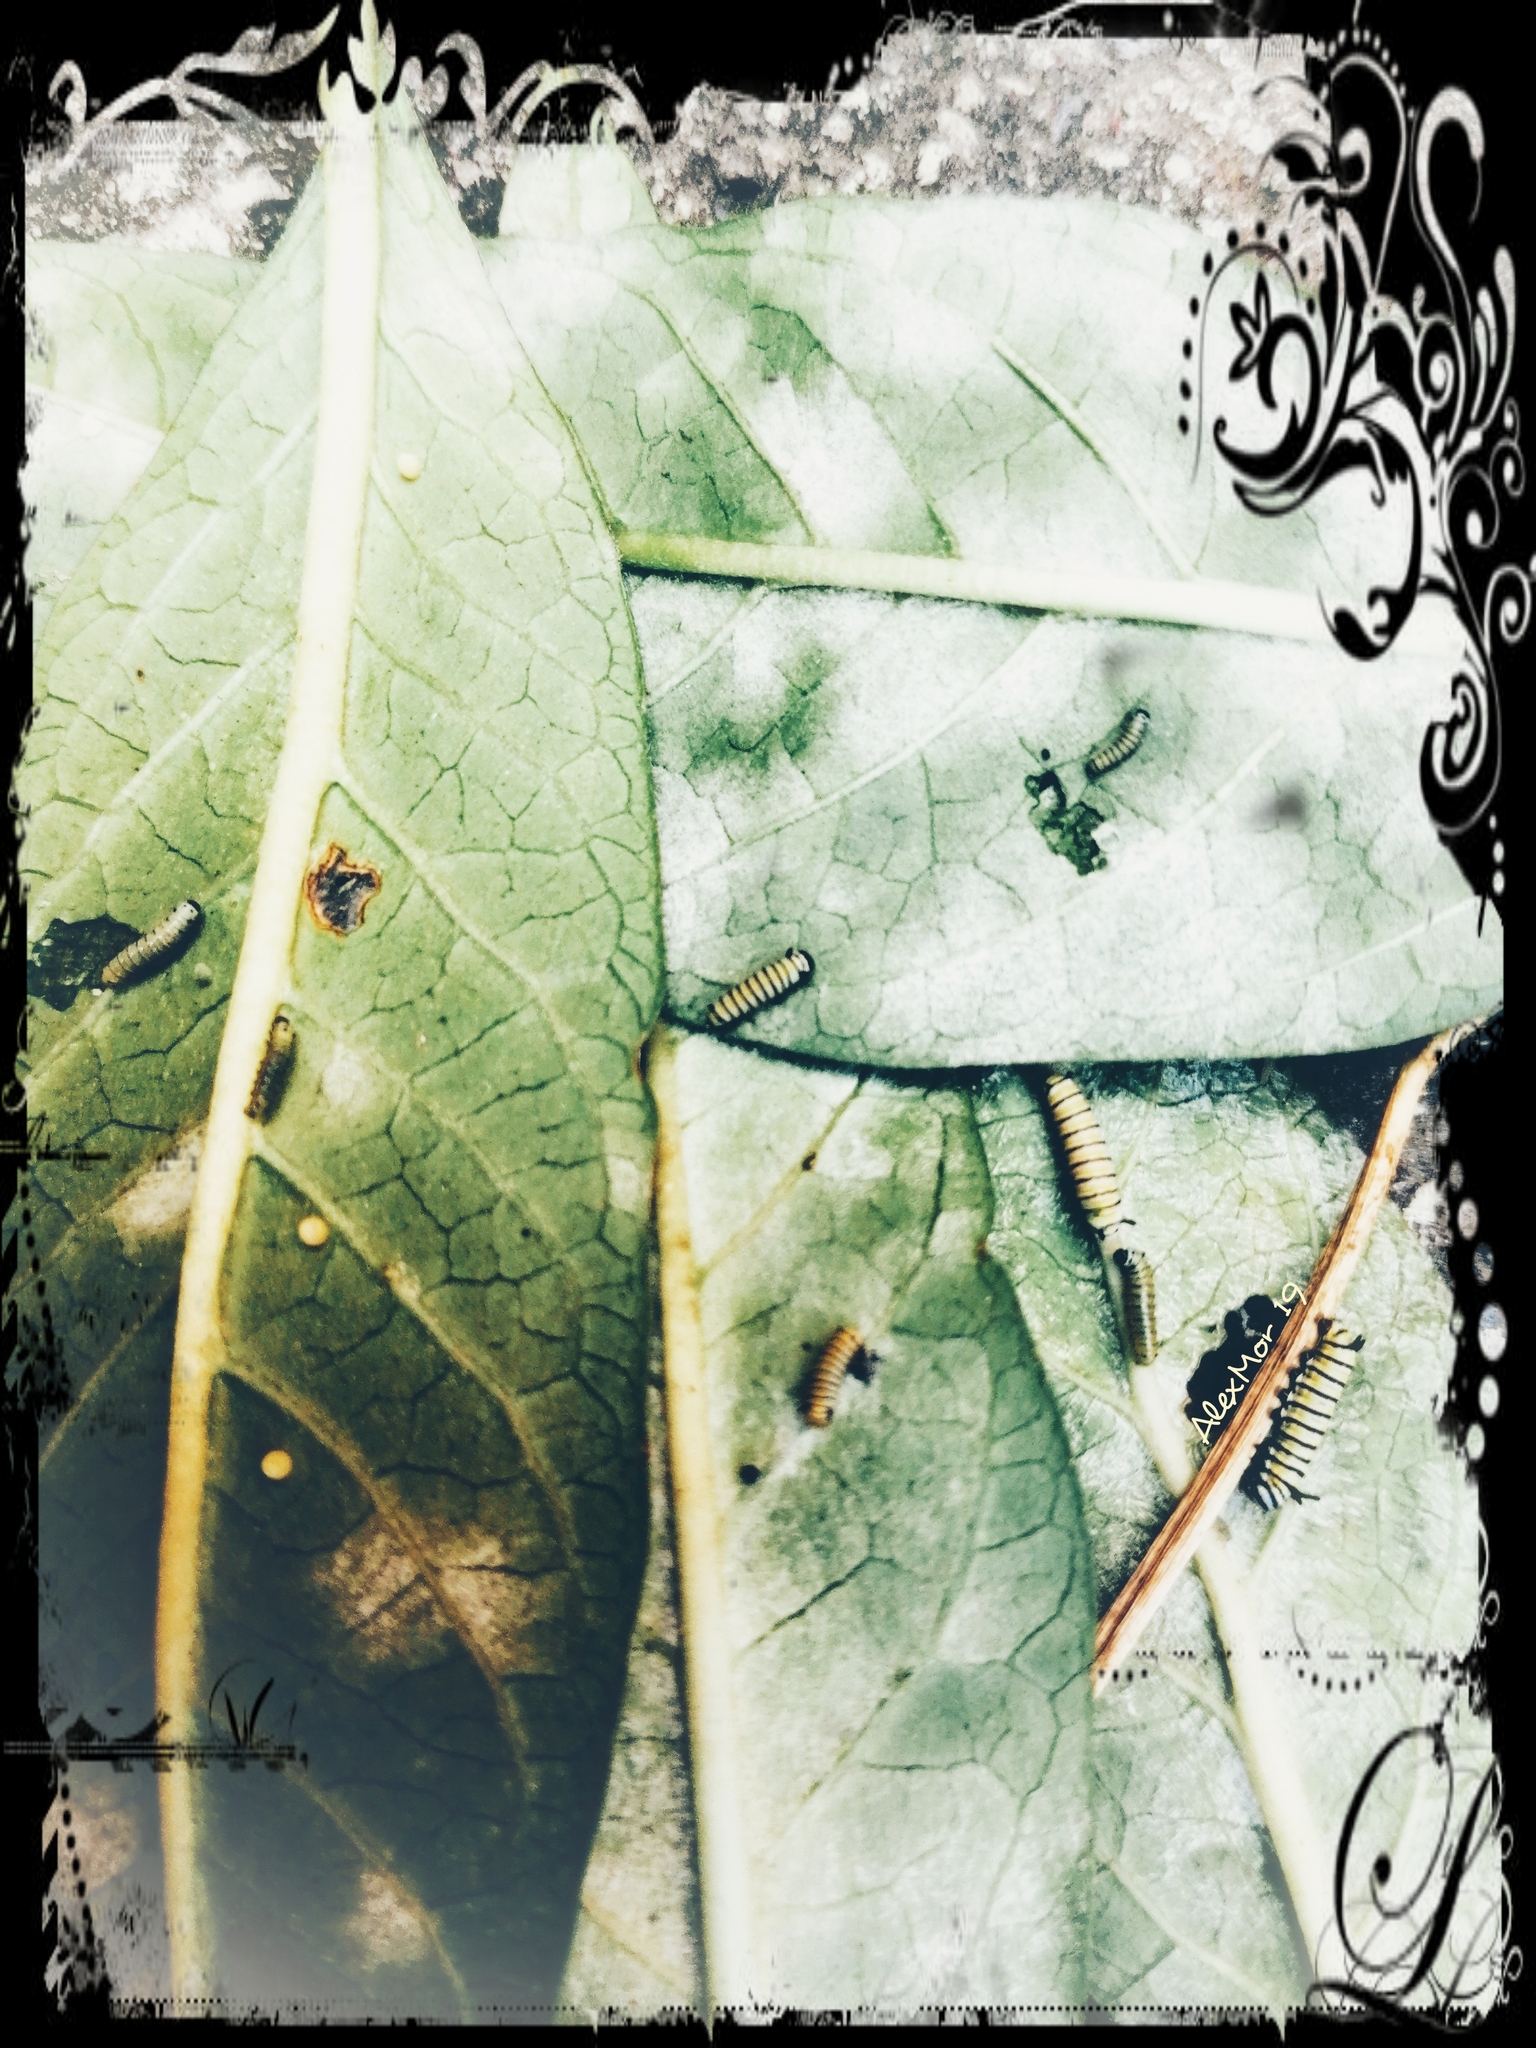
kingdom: Animalia
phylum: Arthropoda
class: Insecta
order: Lepidoptera
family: Nymphalidae
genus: Danaus
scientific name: Danaus plexippus
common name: Monarch
